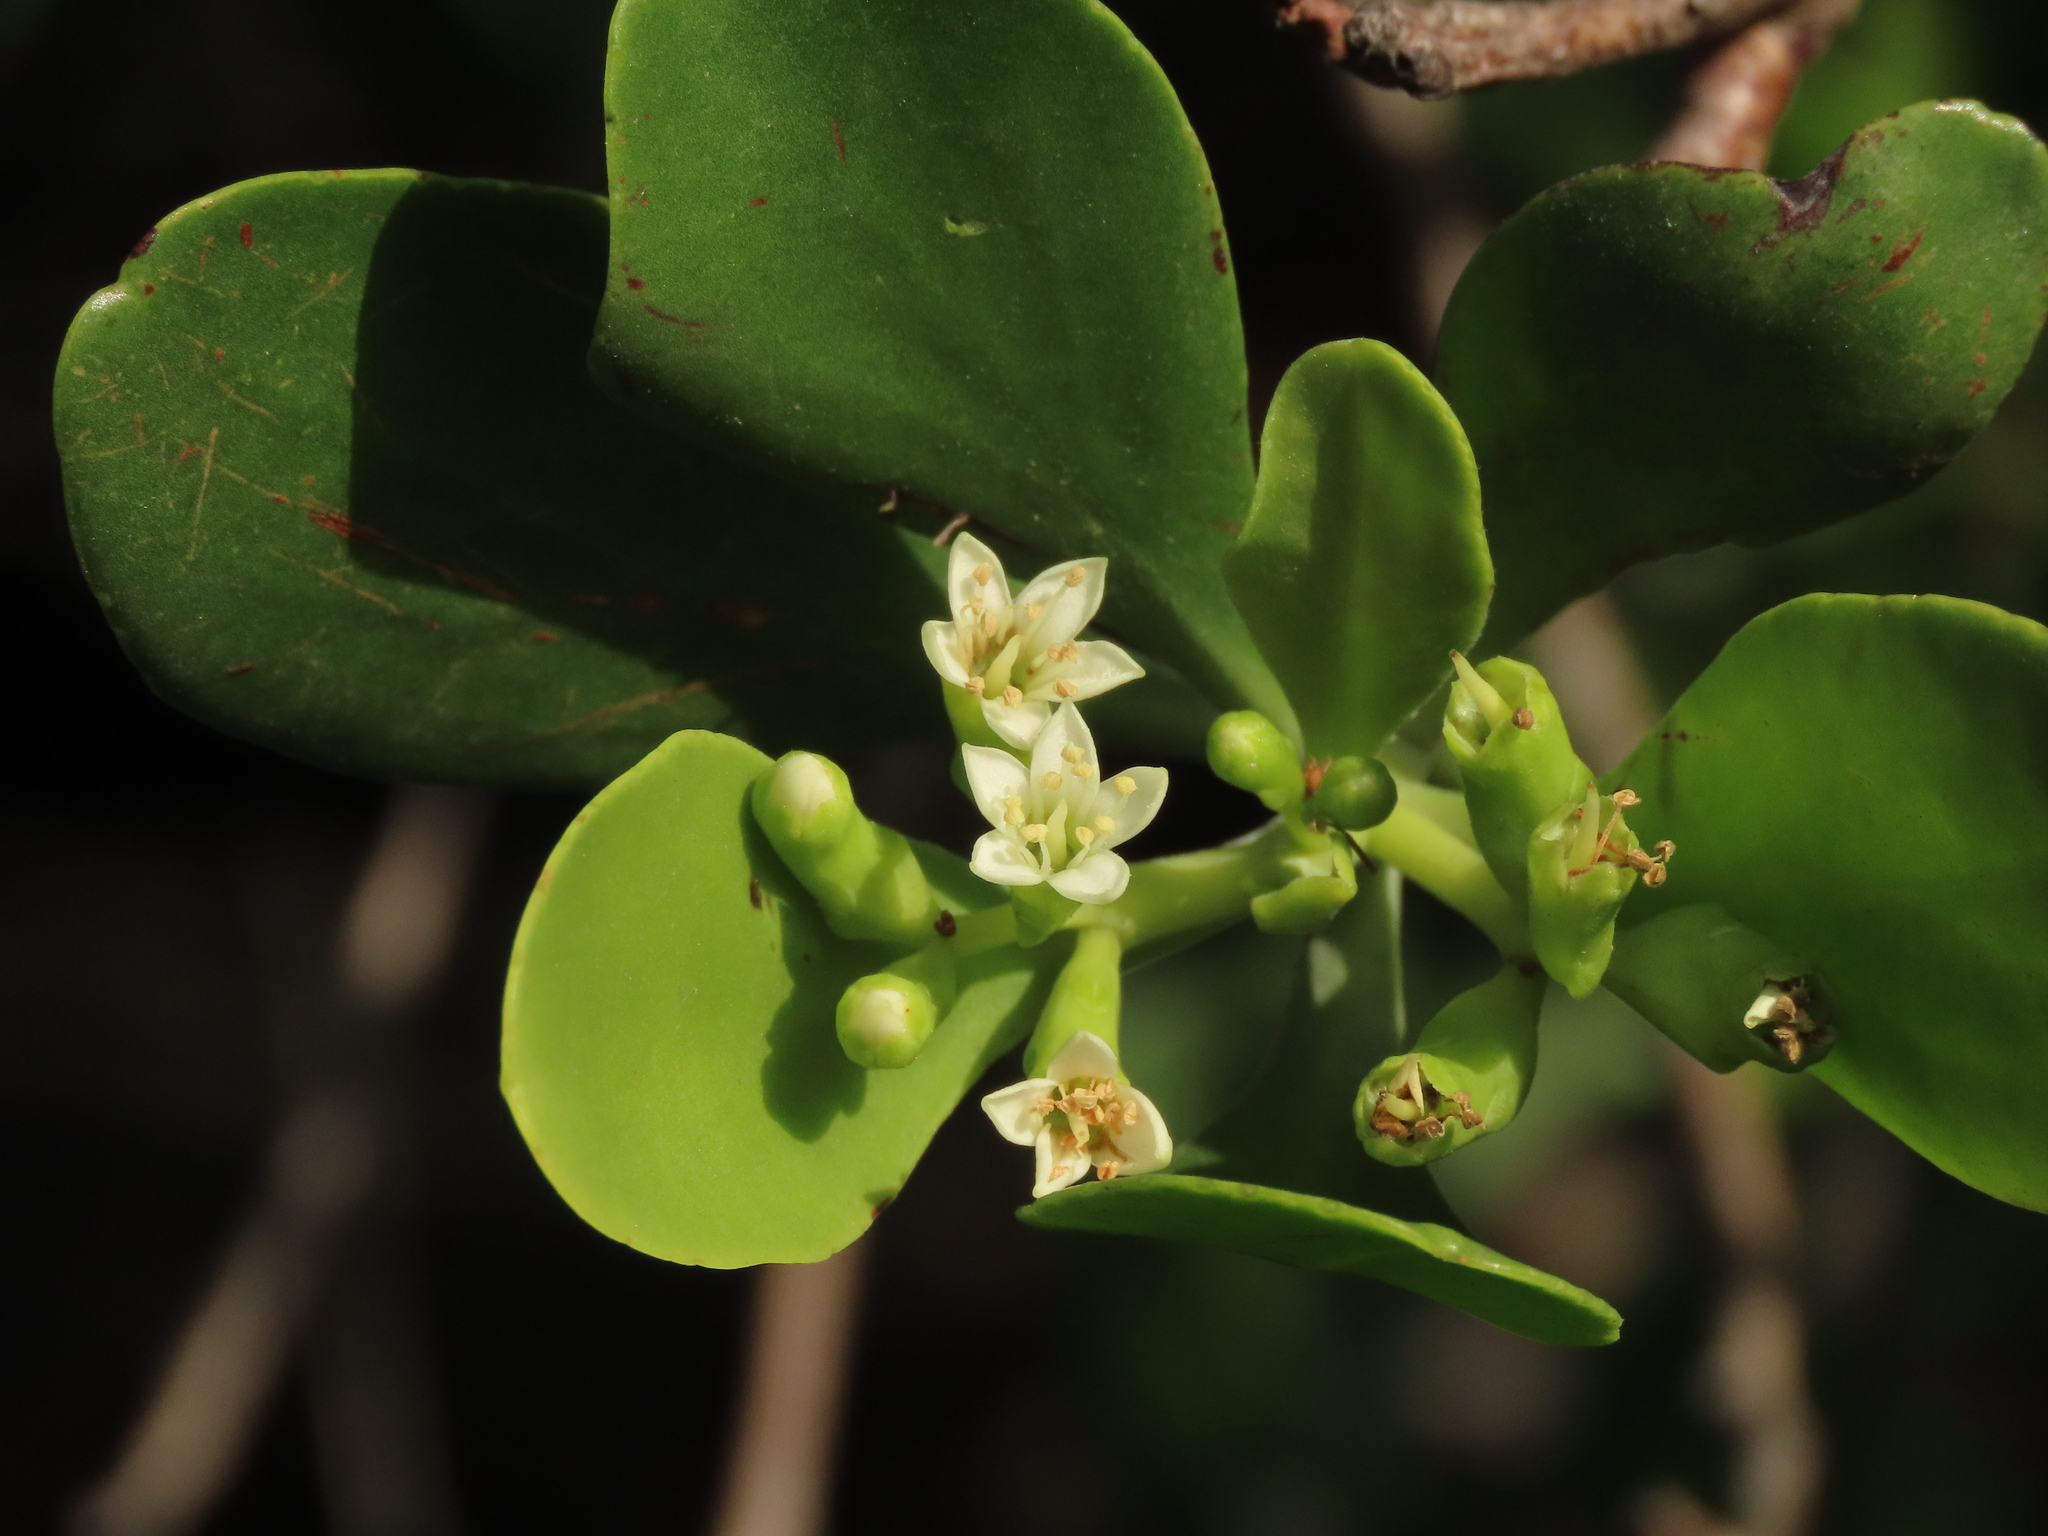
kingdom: Plantae
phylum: Tracheophyta
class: Magnoliopsida
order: Myrtales
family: Combretaceae
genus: Lumnitzera
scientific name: Lumnitzera racemosa
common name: White-flowered black mangrove
